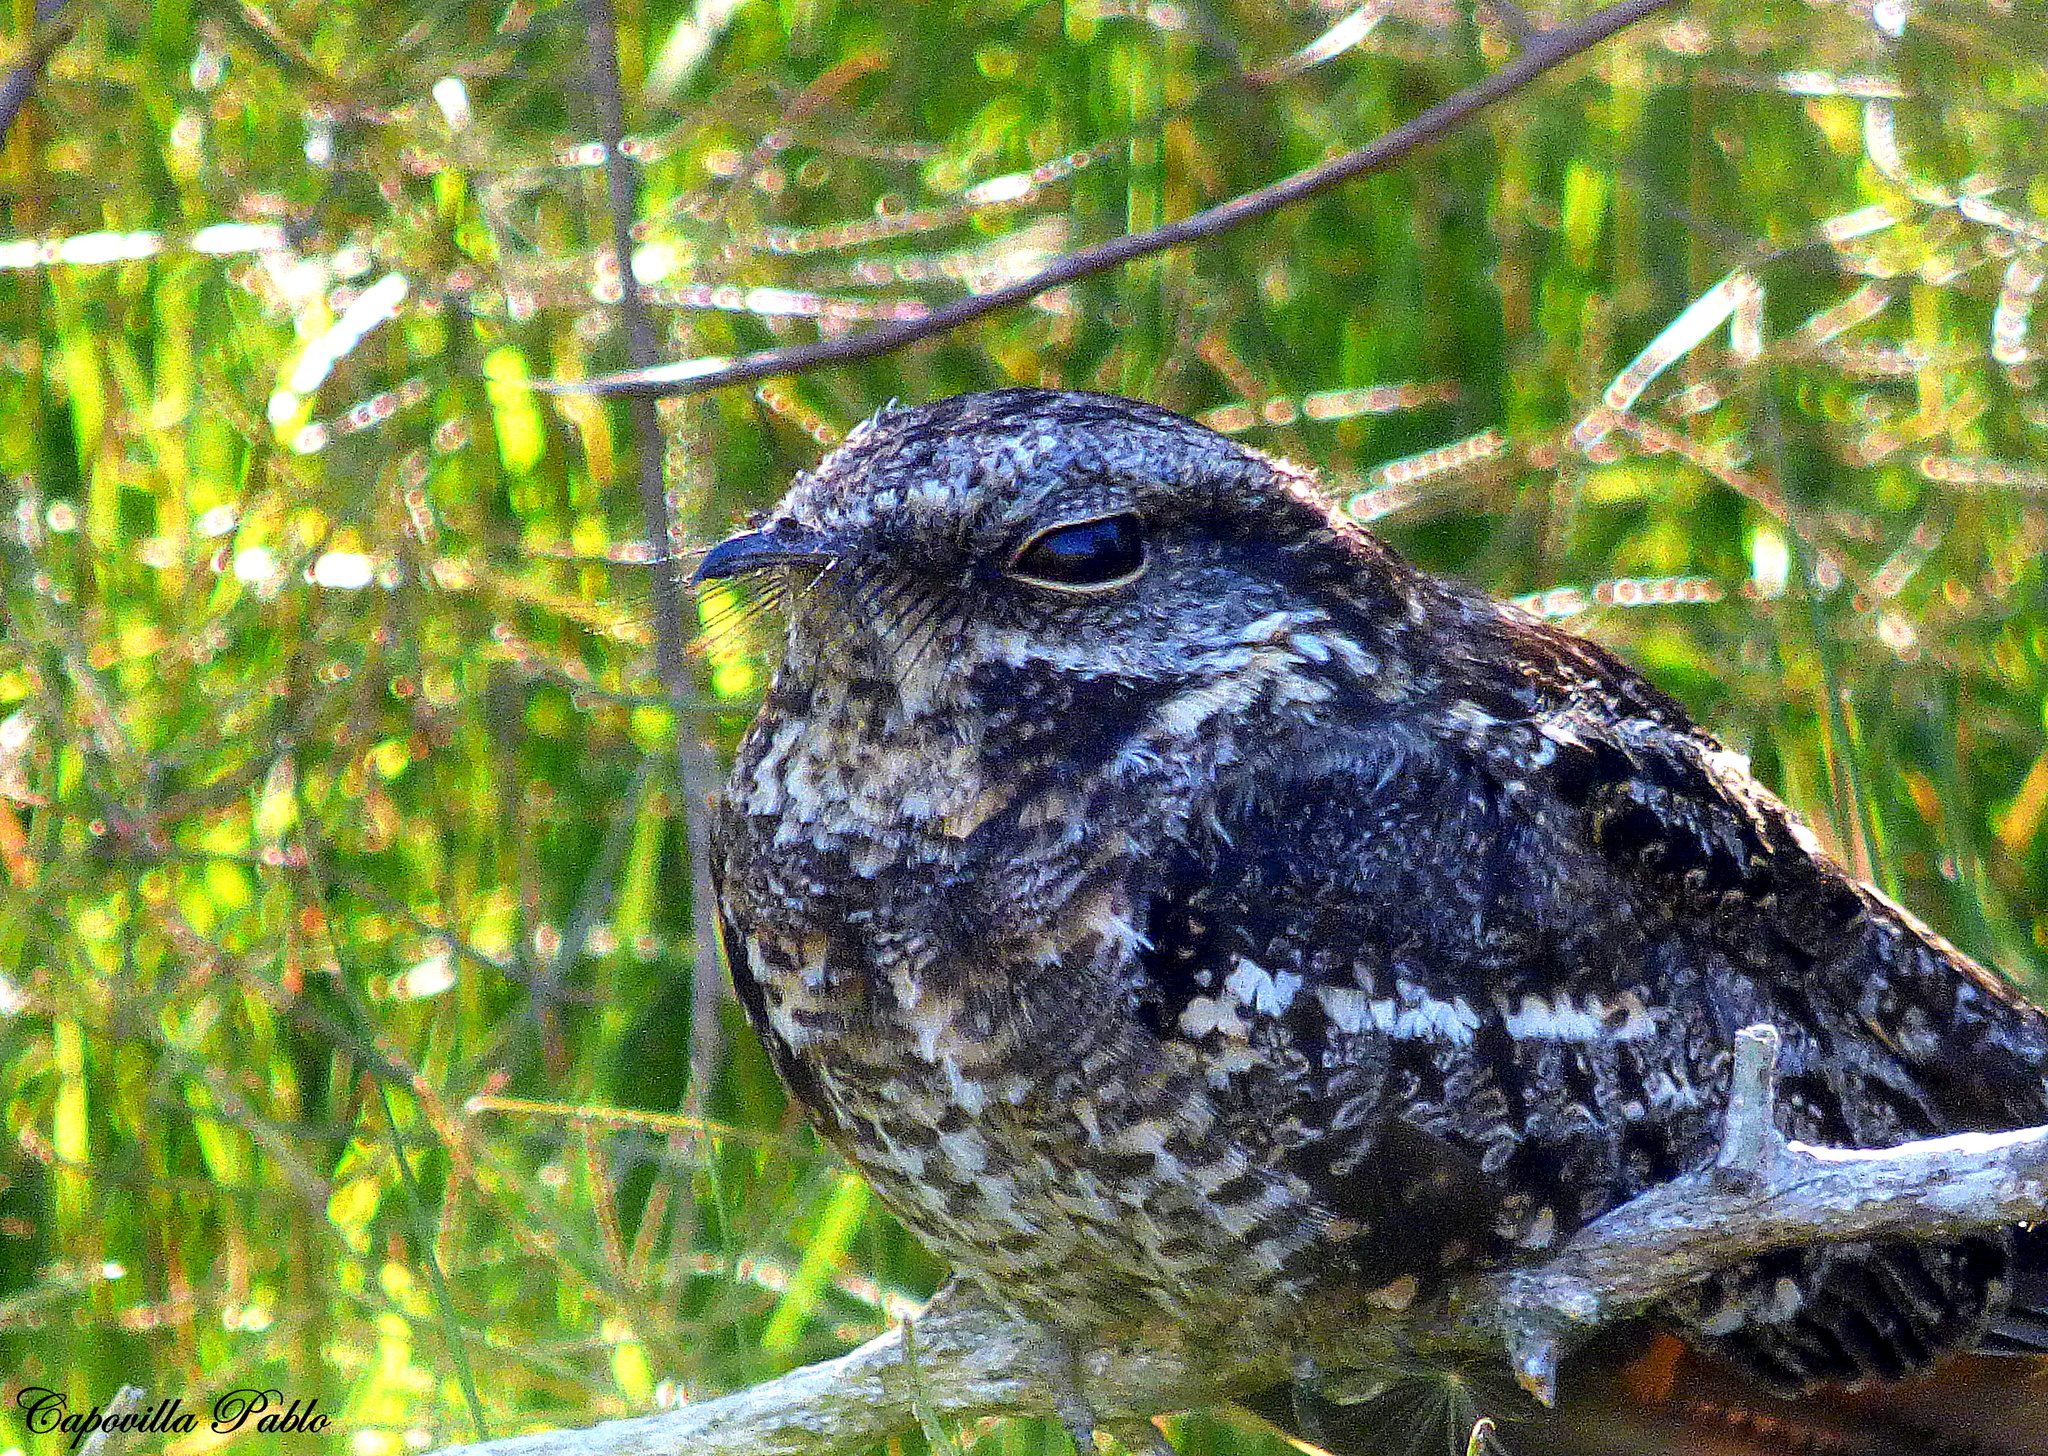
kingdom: Animalia
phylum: Chordata
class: Aves
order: Caprimulgiformes
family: Caprimulgidae
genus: Hydropsalis
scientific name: Hydropsalis torquata
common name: Scissor-tailed nightjar
